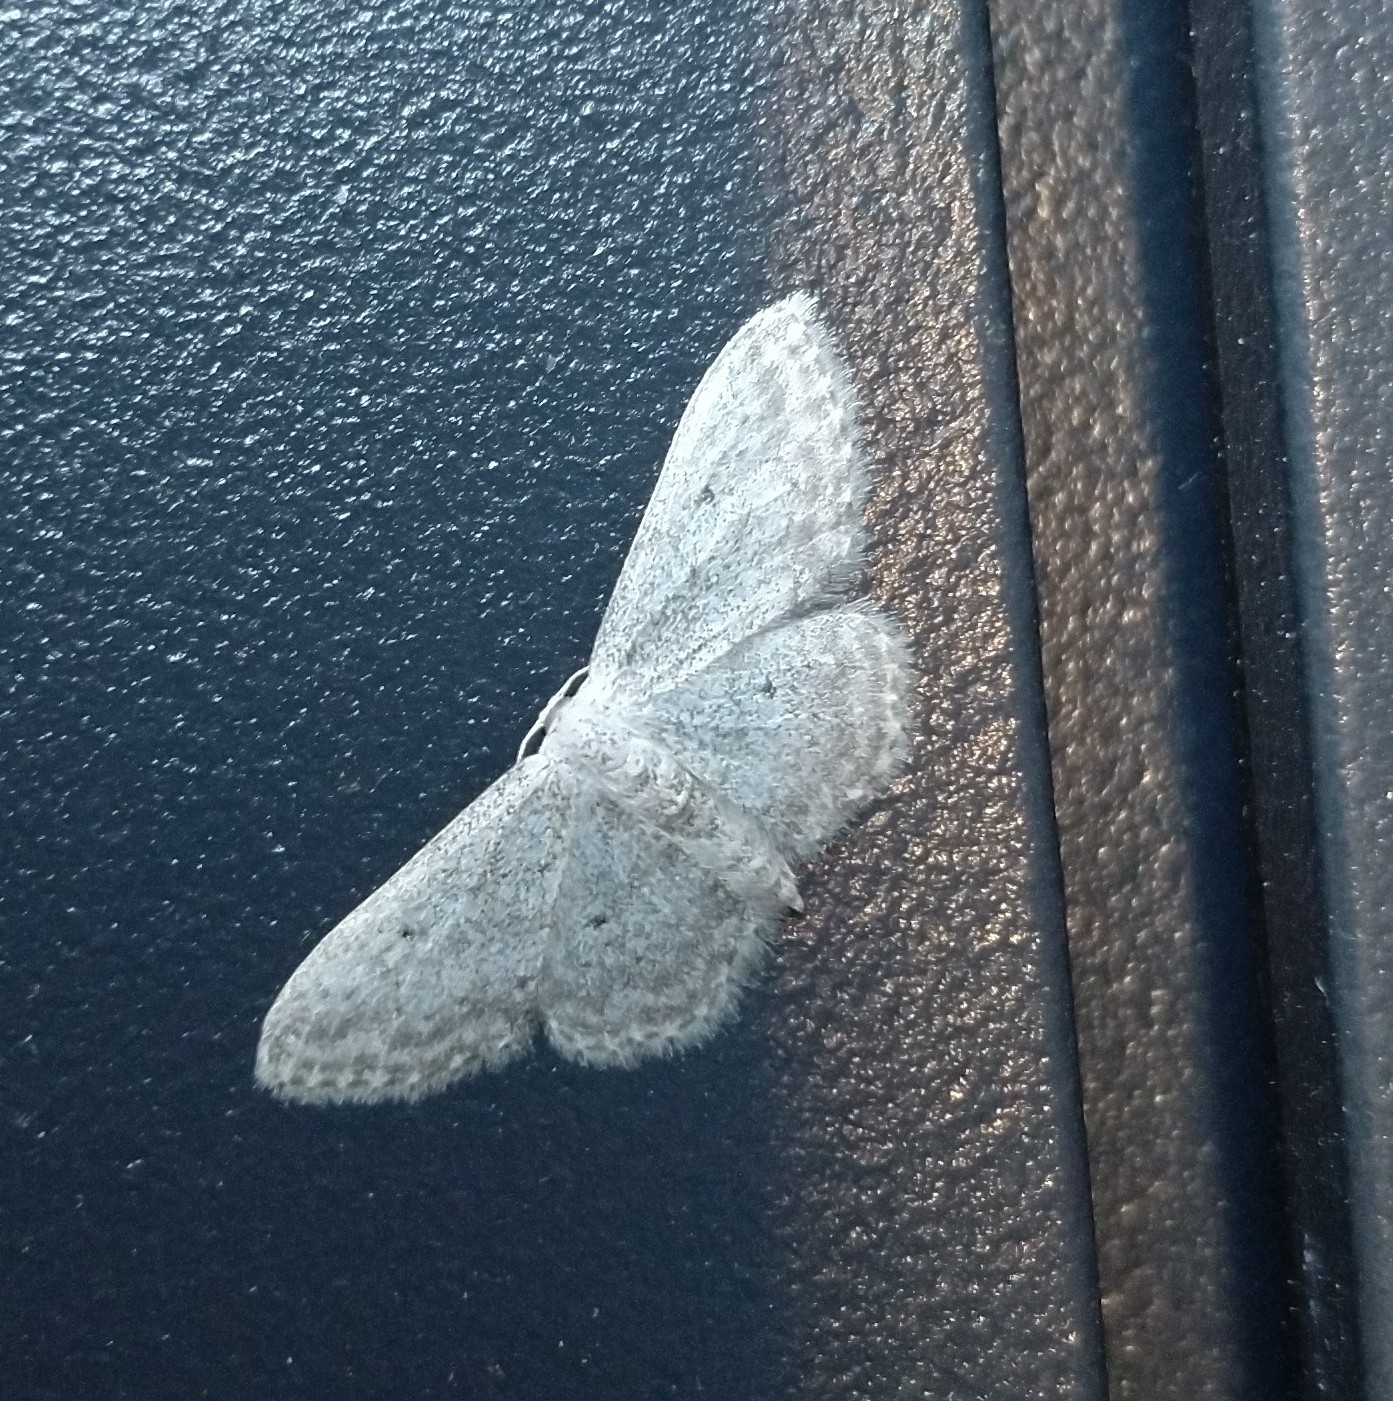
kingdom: Animalia
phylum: Arthropoda
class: Insecta
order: Lepidoptera
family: Geometridae
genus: Idaea
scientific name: Idaea seriata
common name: Small dusty wave
